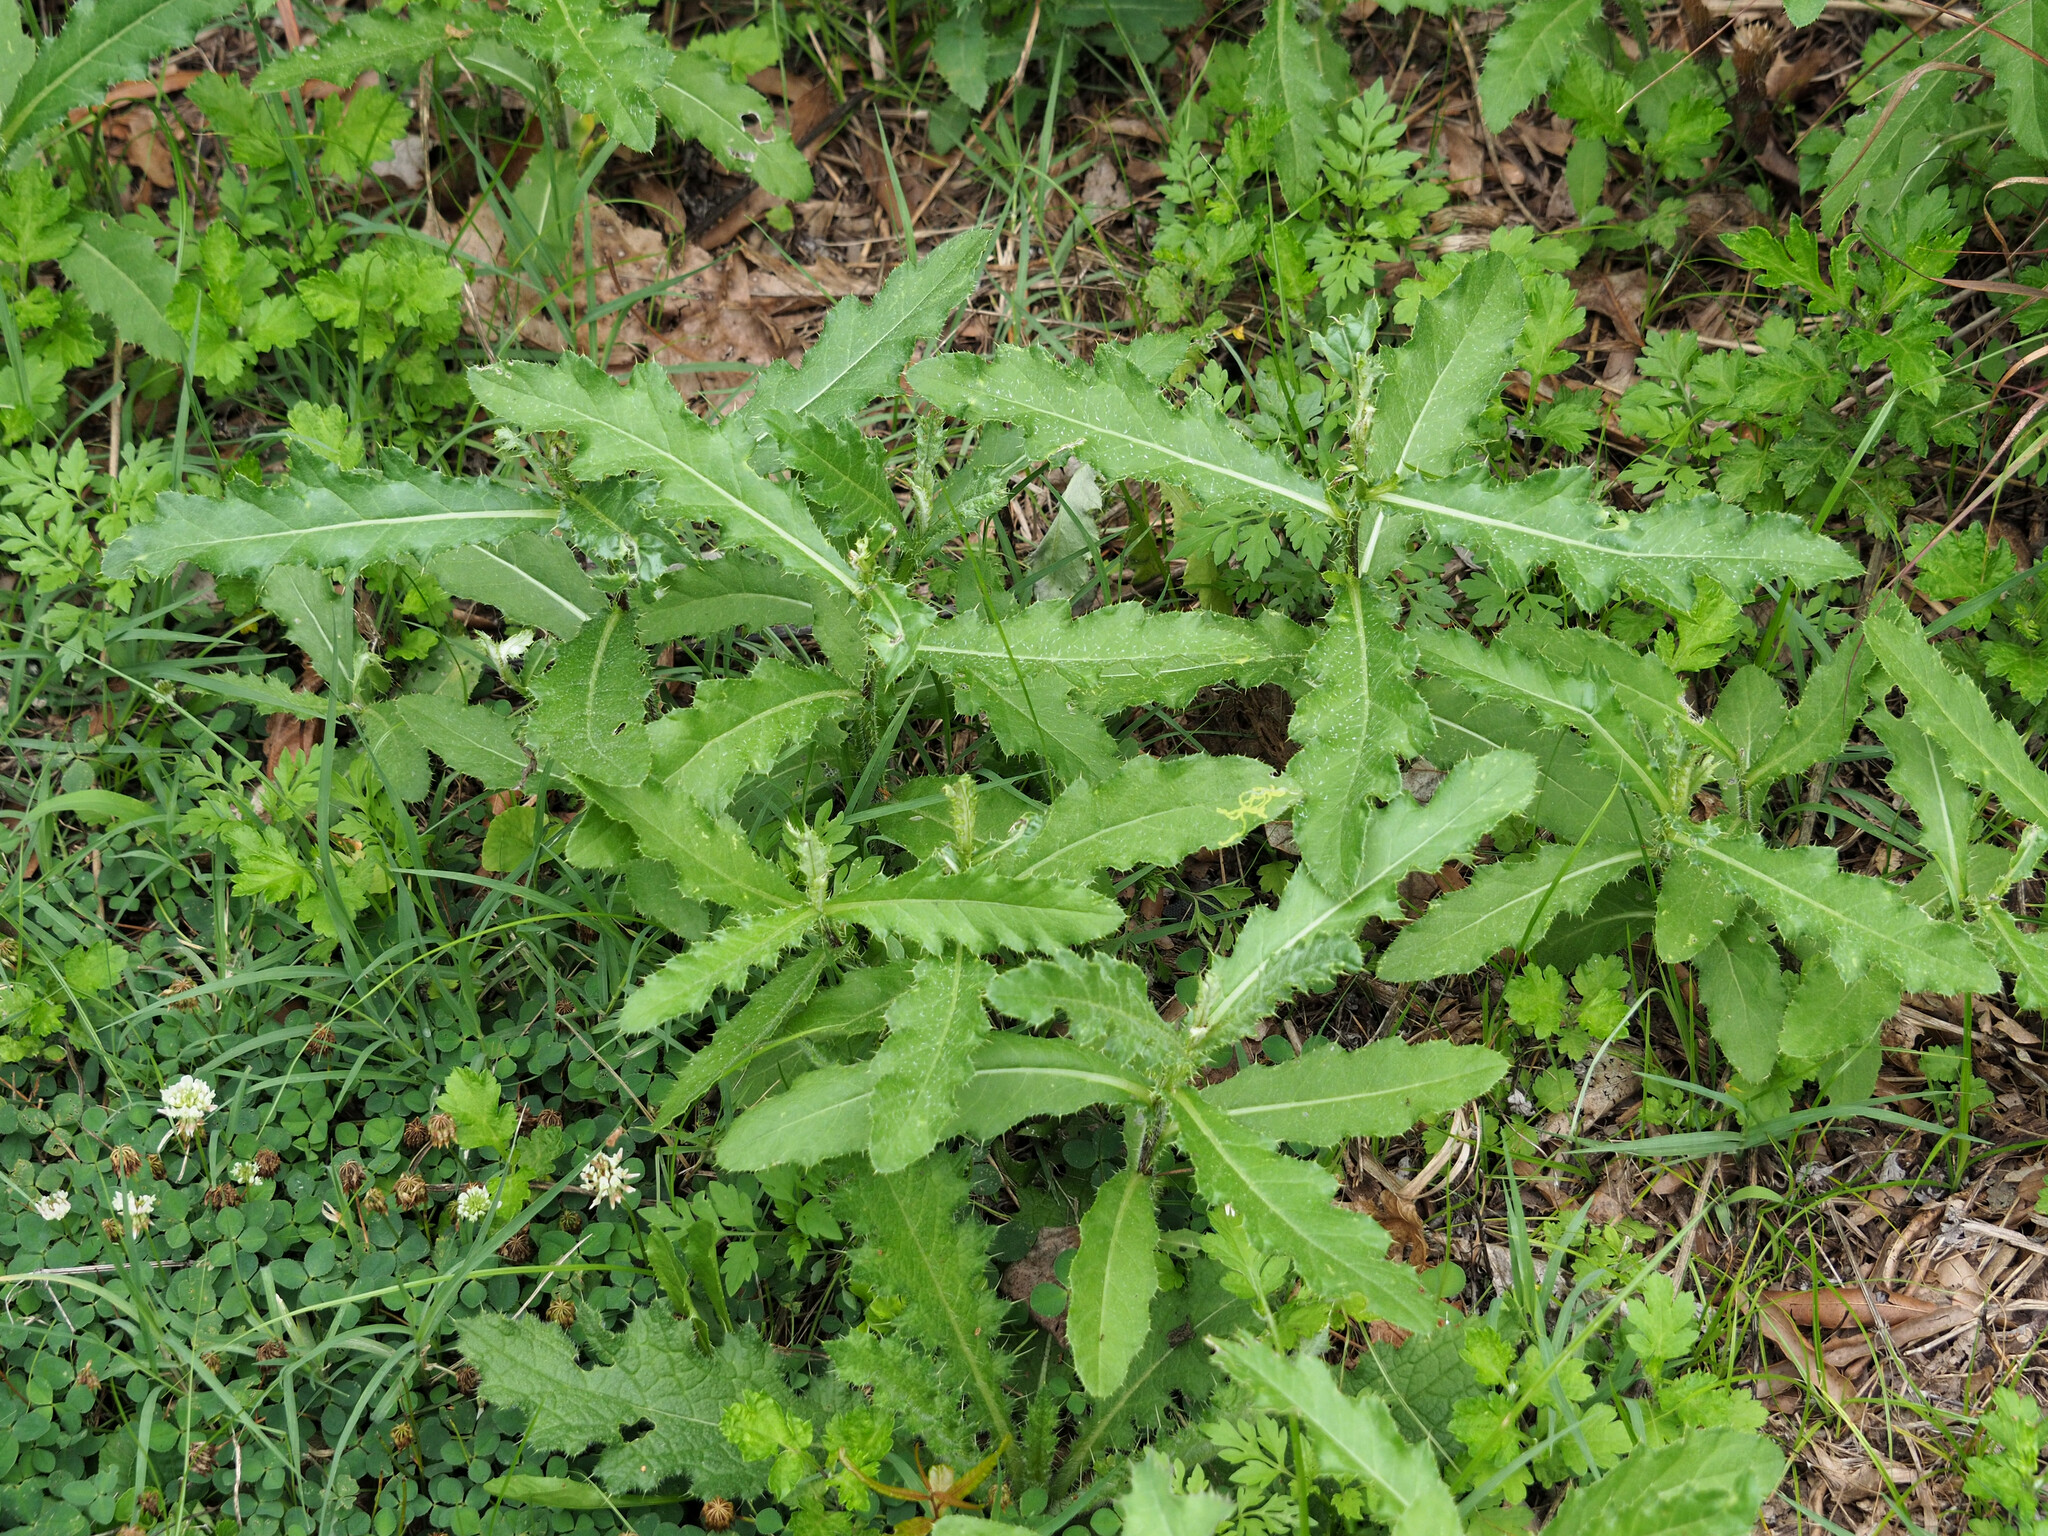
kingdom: Plantae
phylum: Tracheophyta
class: Magnoliopsida
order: Asterales
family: Asteraceae
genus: Cirsium
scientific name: Cirsium arvense
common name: Creeping thistle
